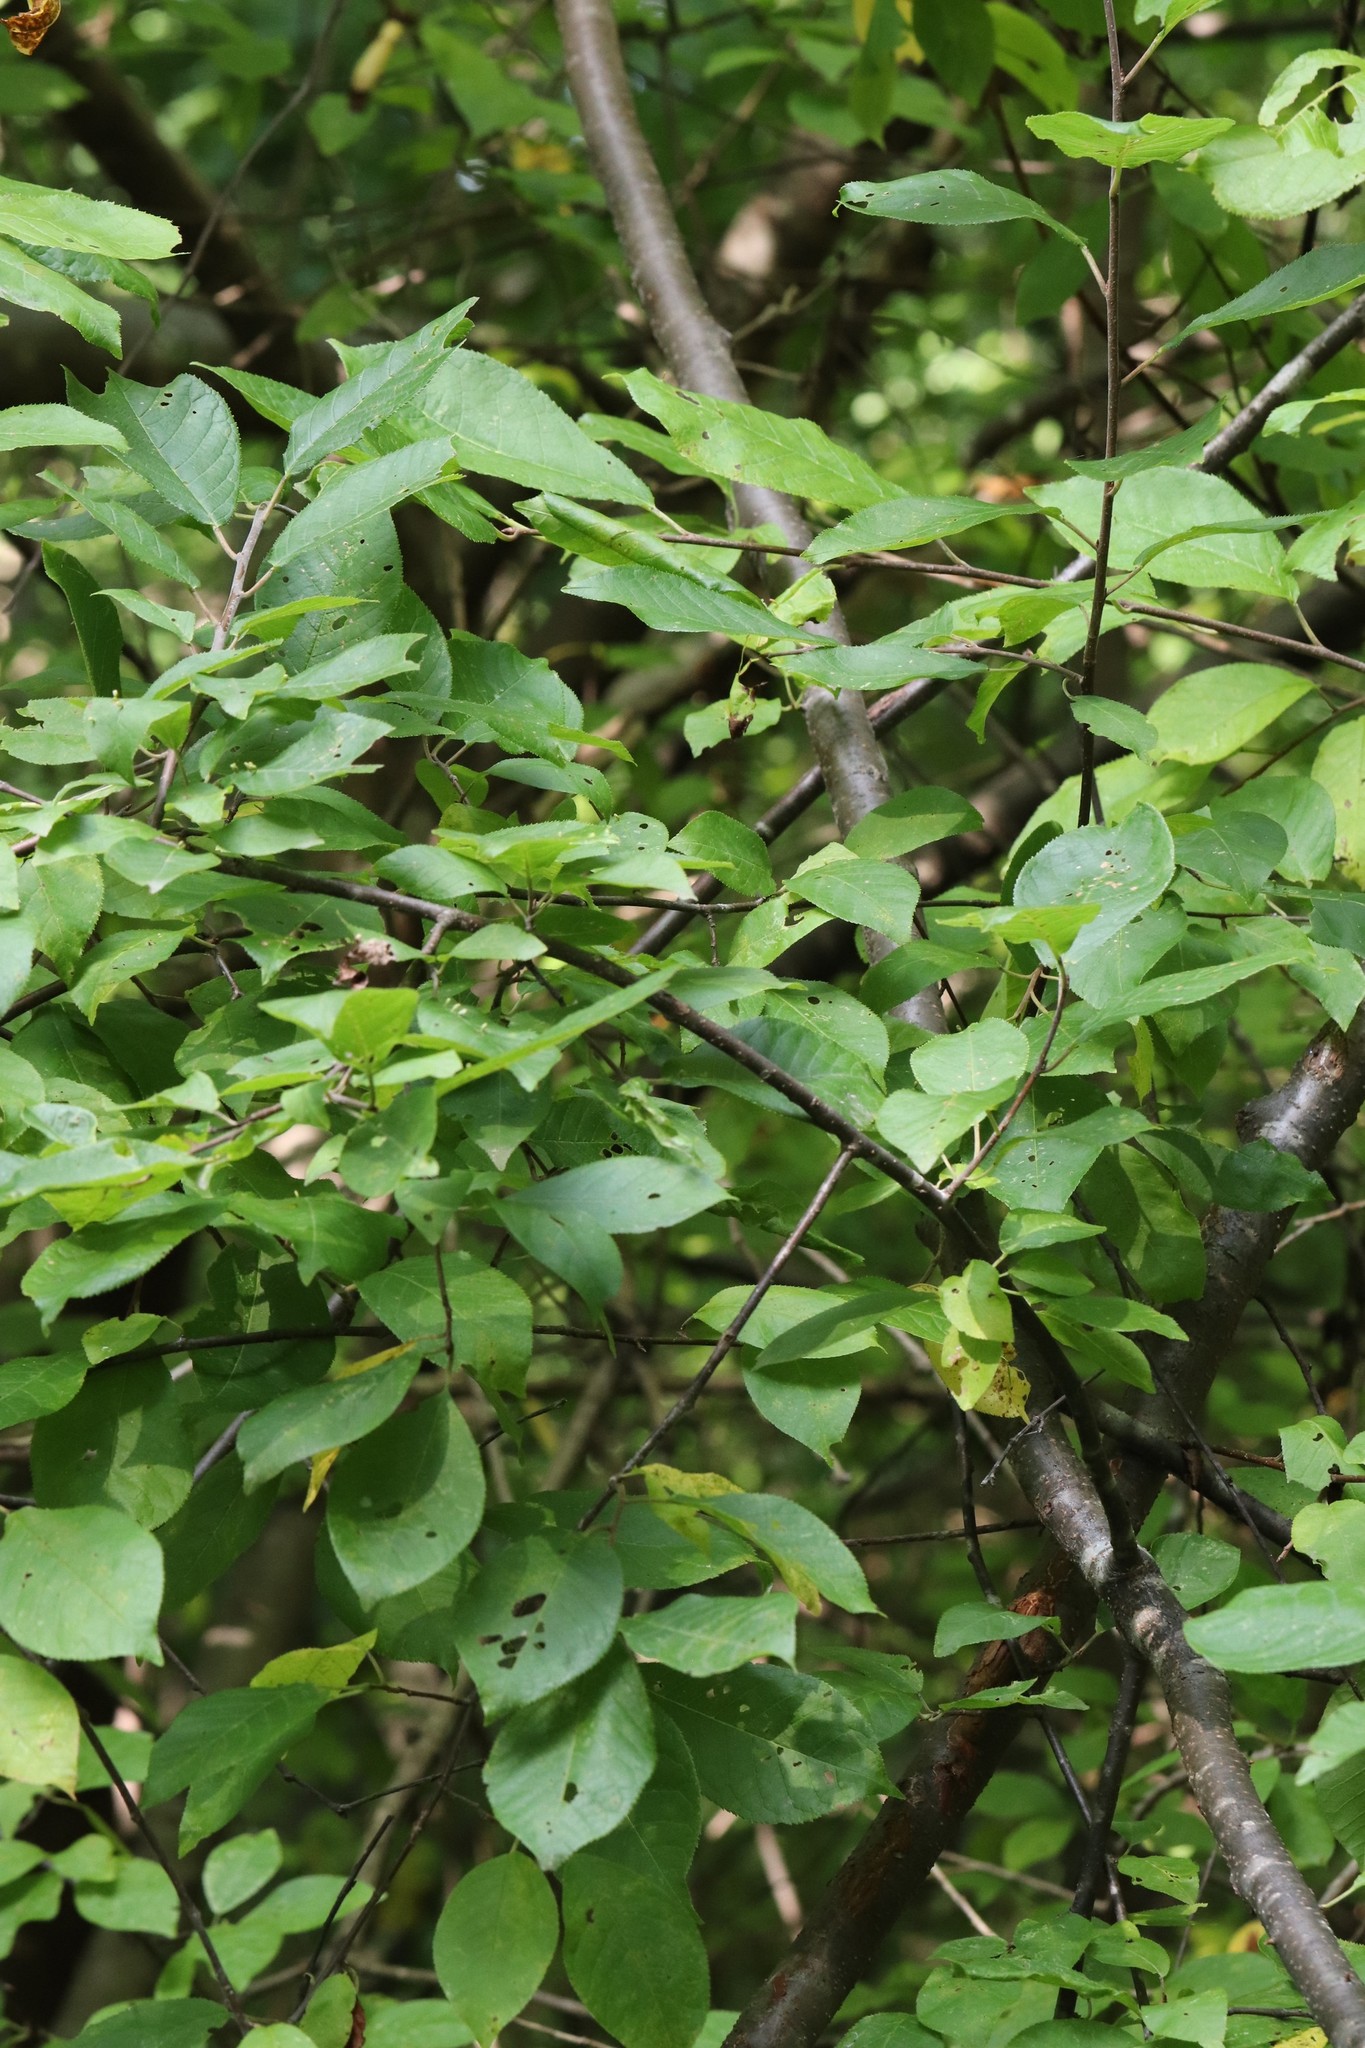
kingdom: Plantae
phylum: Tracheophyta
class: Magnoliopsida
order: Rosales
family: Rosaceae
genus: Prunus
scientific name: Prunus padus
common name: Bird cherry
